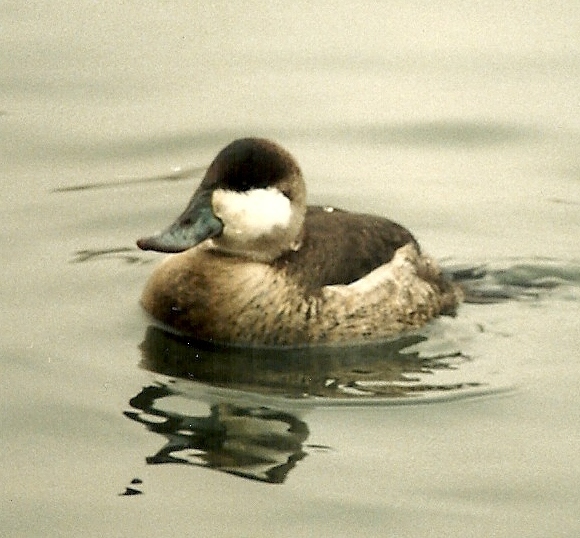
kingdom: Animalia
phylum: Chordata
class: Aves
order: Anseriformes
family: Anatidae
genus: Oxyura
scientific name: Oxyura jamaicensis
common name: Ruddy duck
